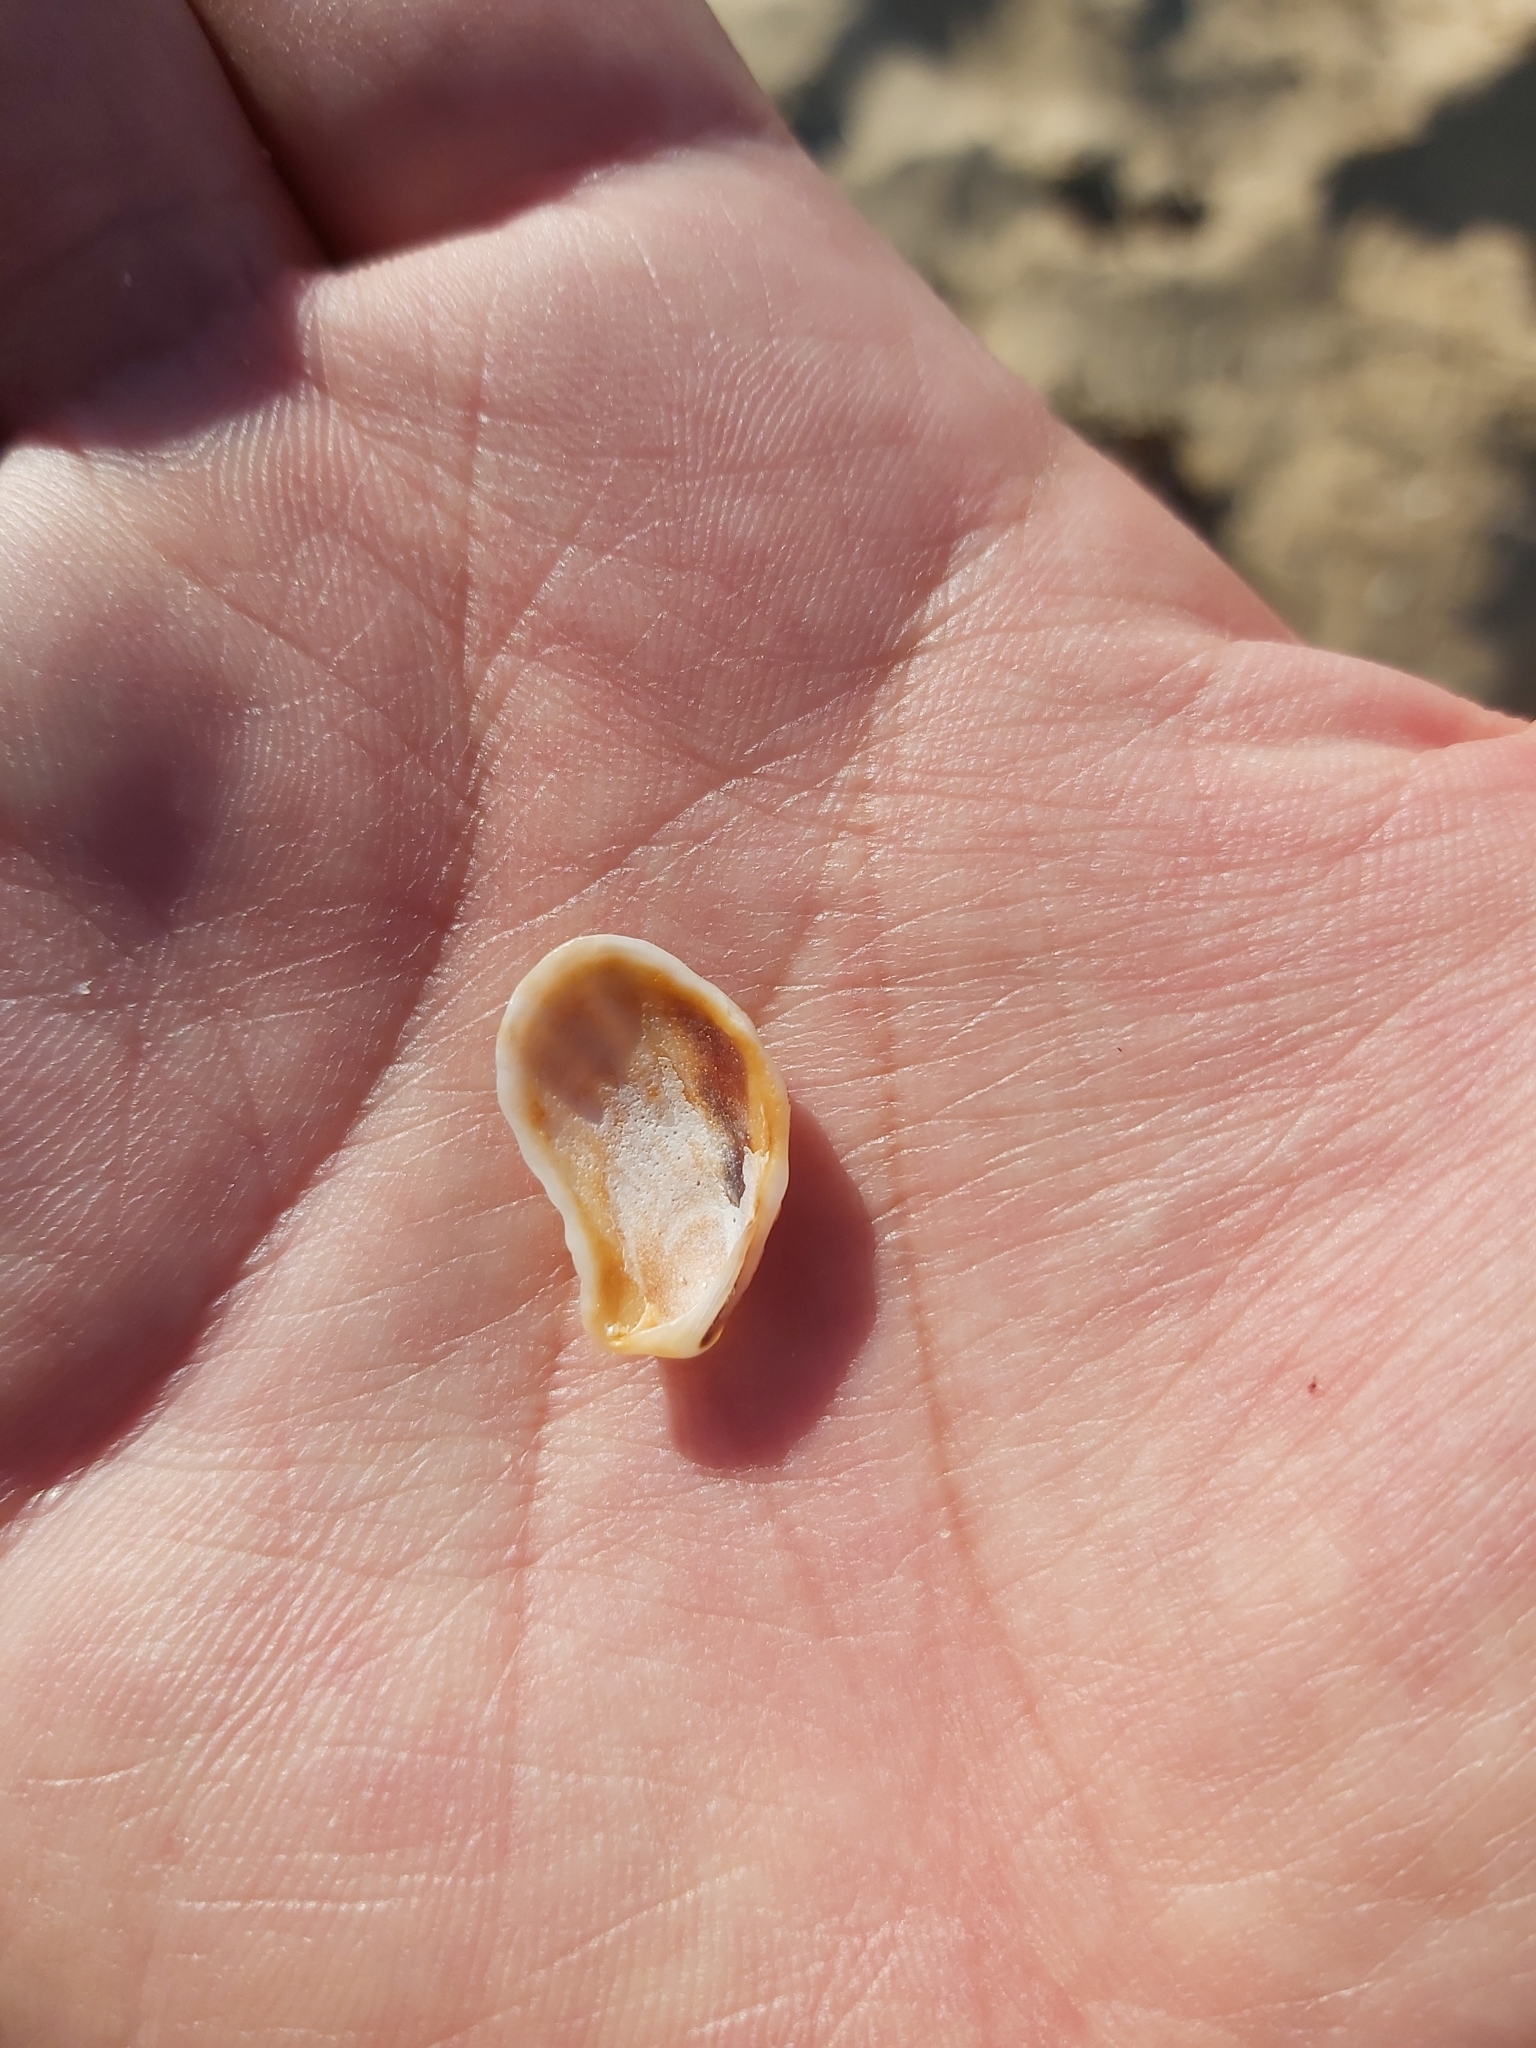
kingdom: Animalia
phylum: Mollusca
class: Bivalvia
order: Carditida
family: Carditidae
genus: Cardita
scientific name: Cardita aviculina
